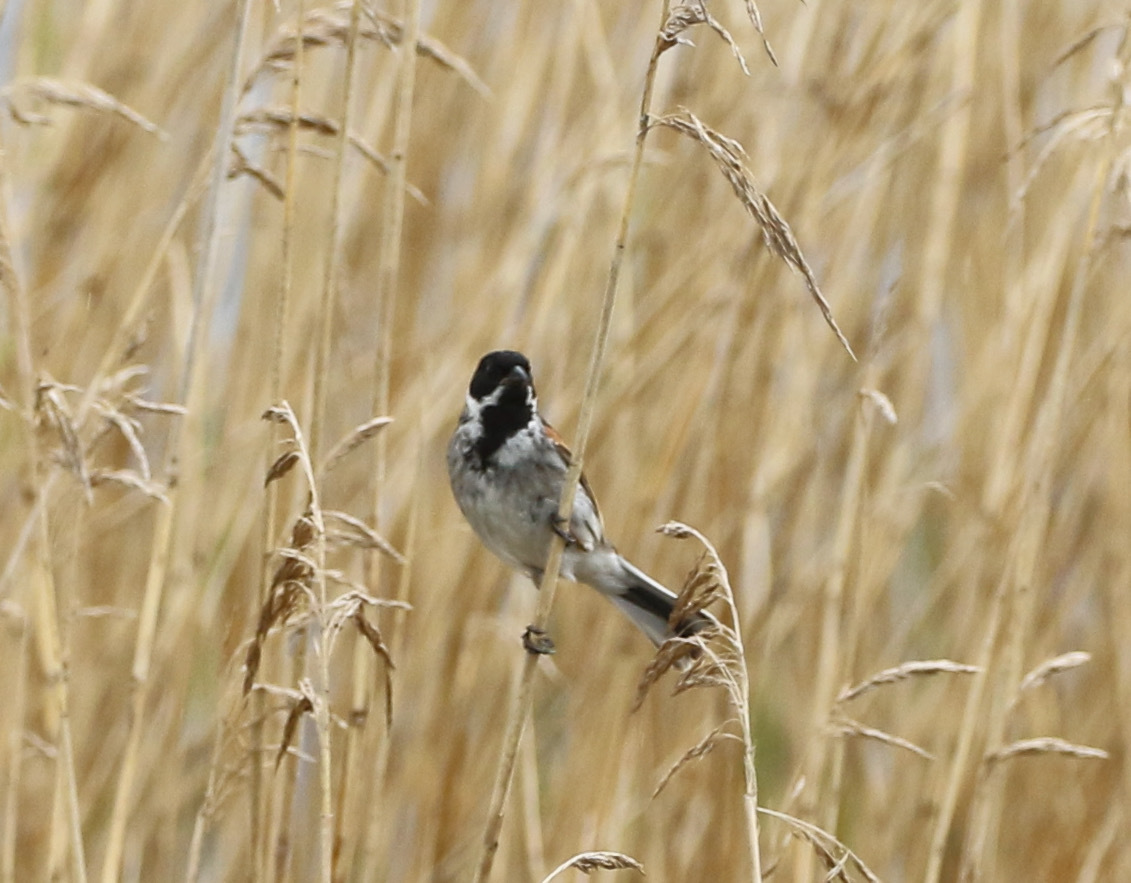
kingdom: Animalia
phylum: Chordata
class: Aves
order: Passeriformes
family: Emberizidae
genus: Emberiza
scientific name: Emberiza schoeniclus
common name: Reed bunting
